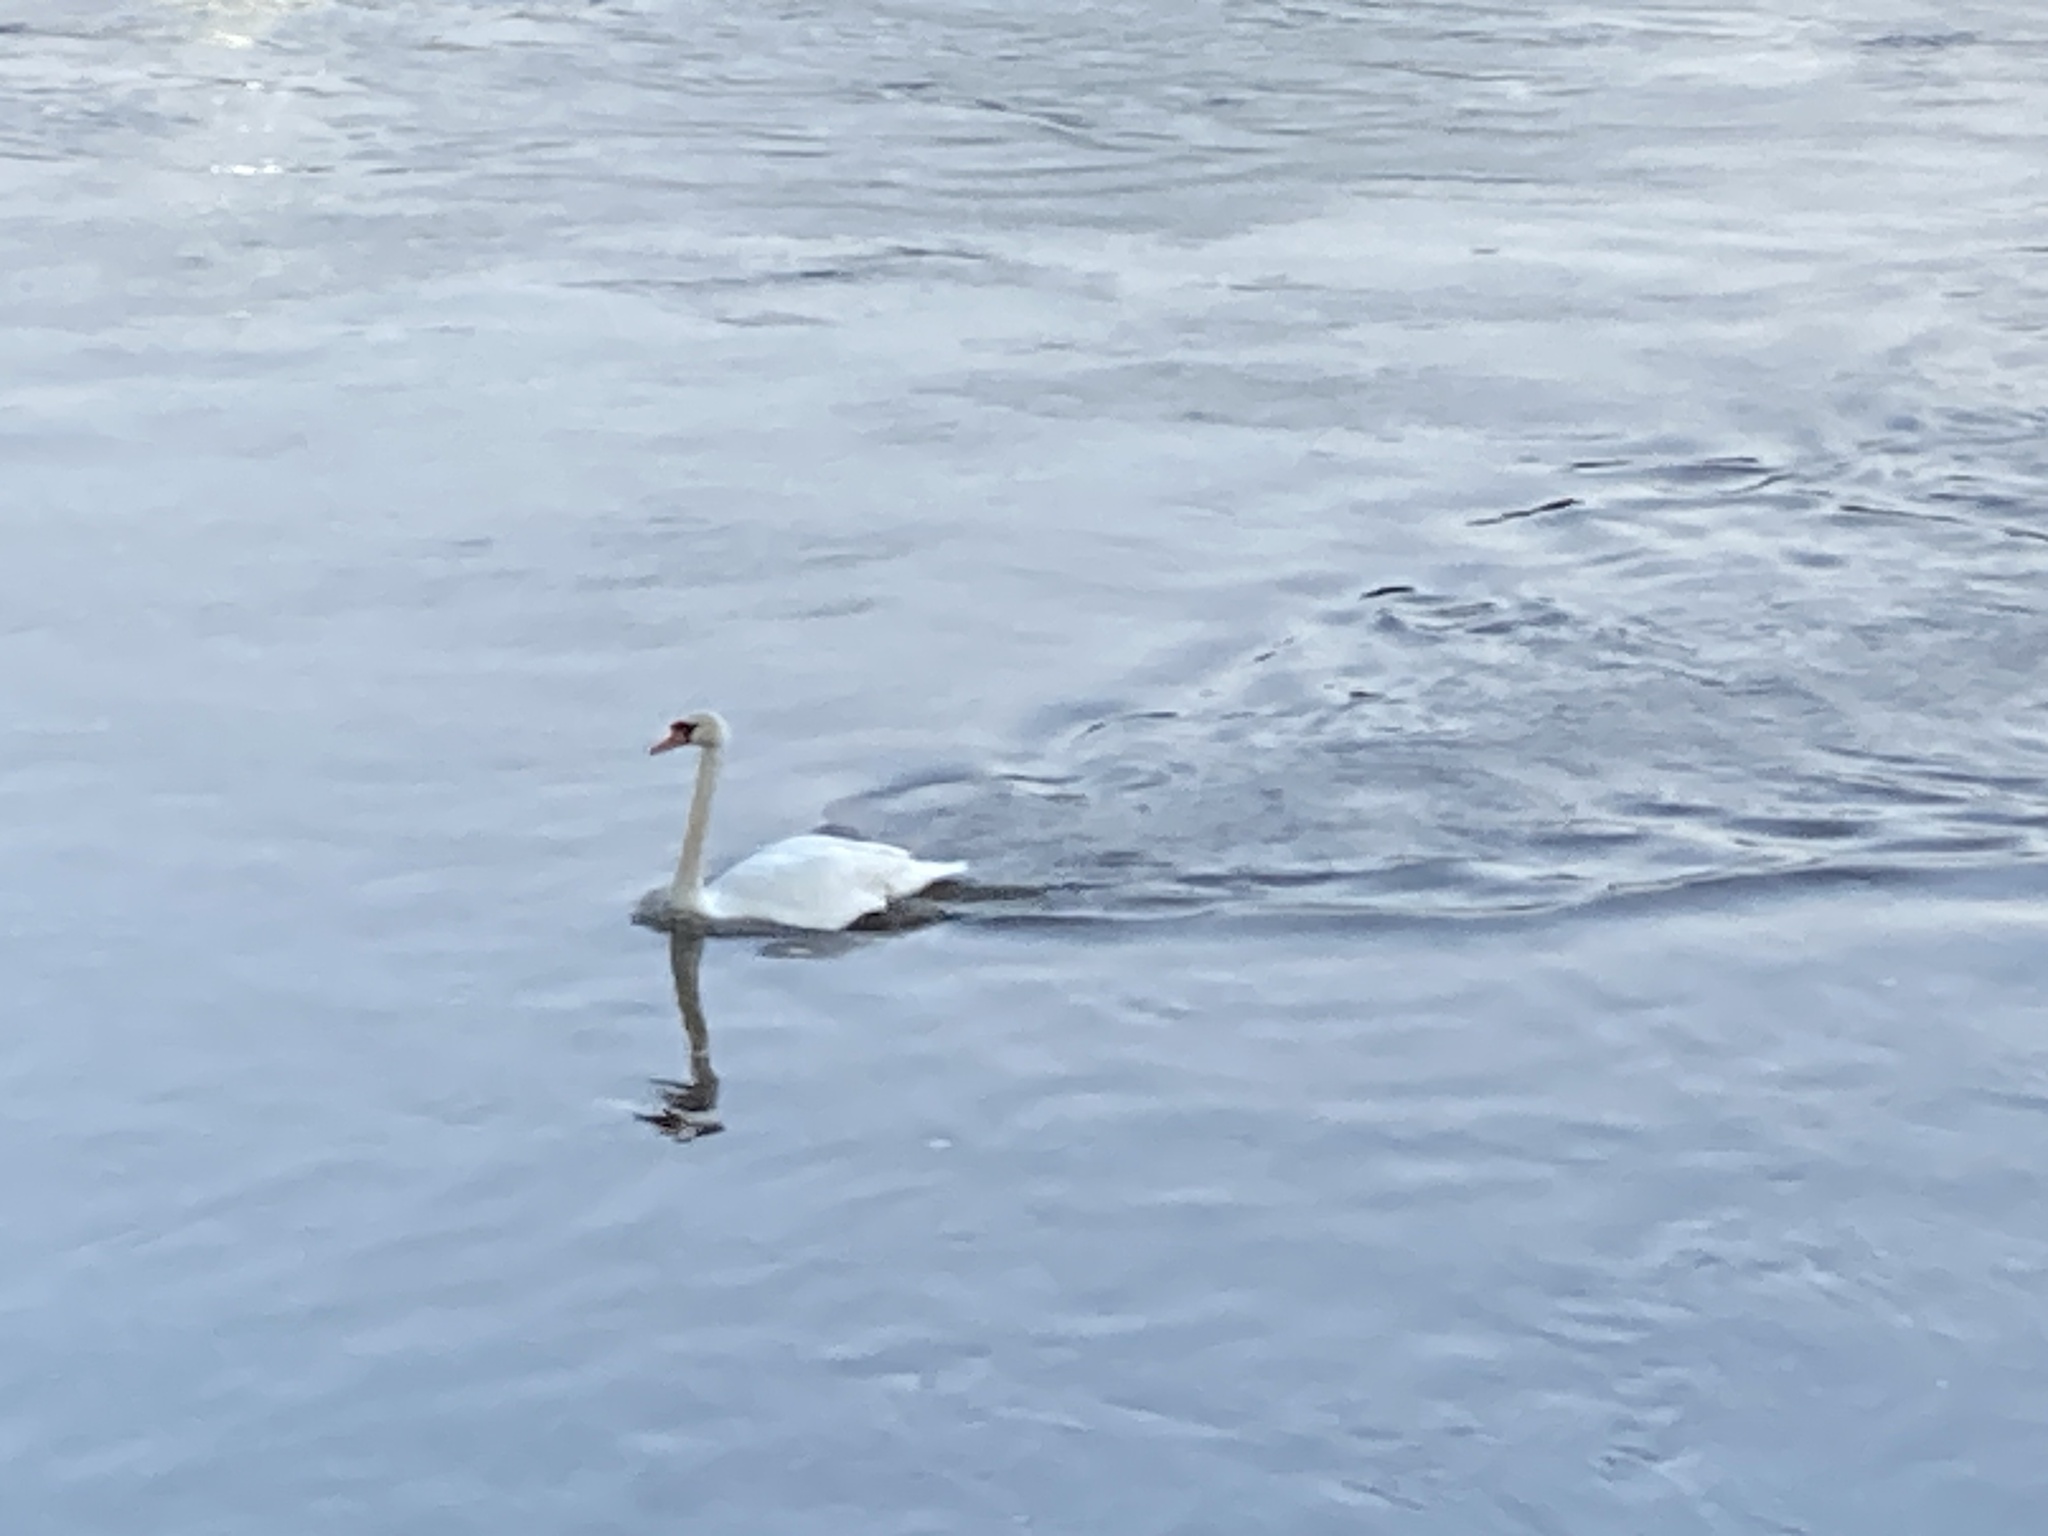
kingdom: Animalia
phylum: Chordata
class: Aves
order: Anseriformes
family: Anatidae
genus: Cygnus
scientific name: Cygnus olor
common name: Mute swan
